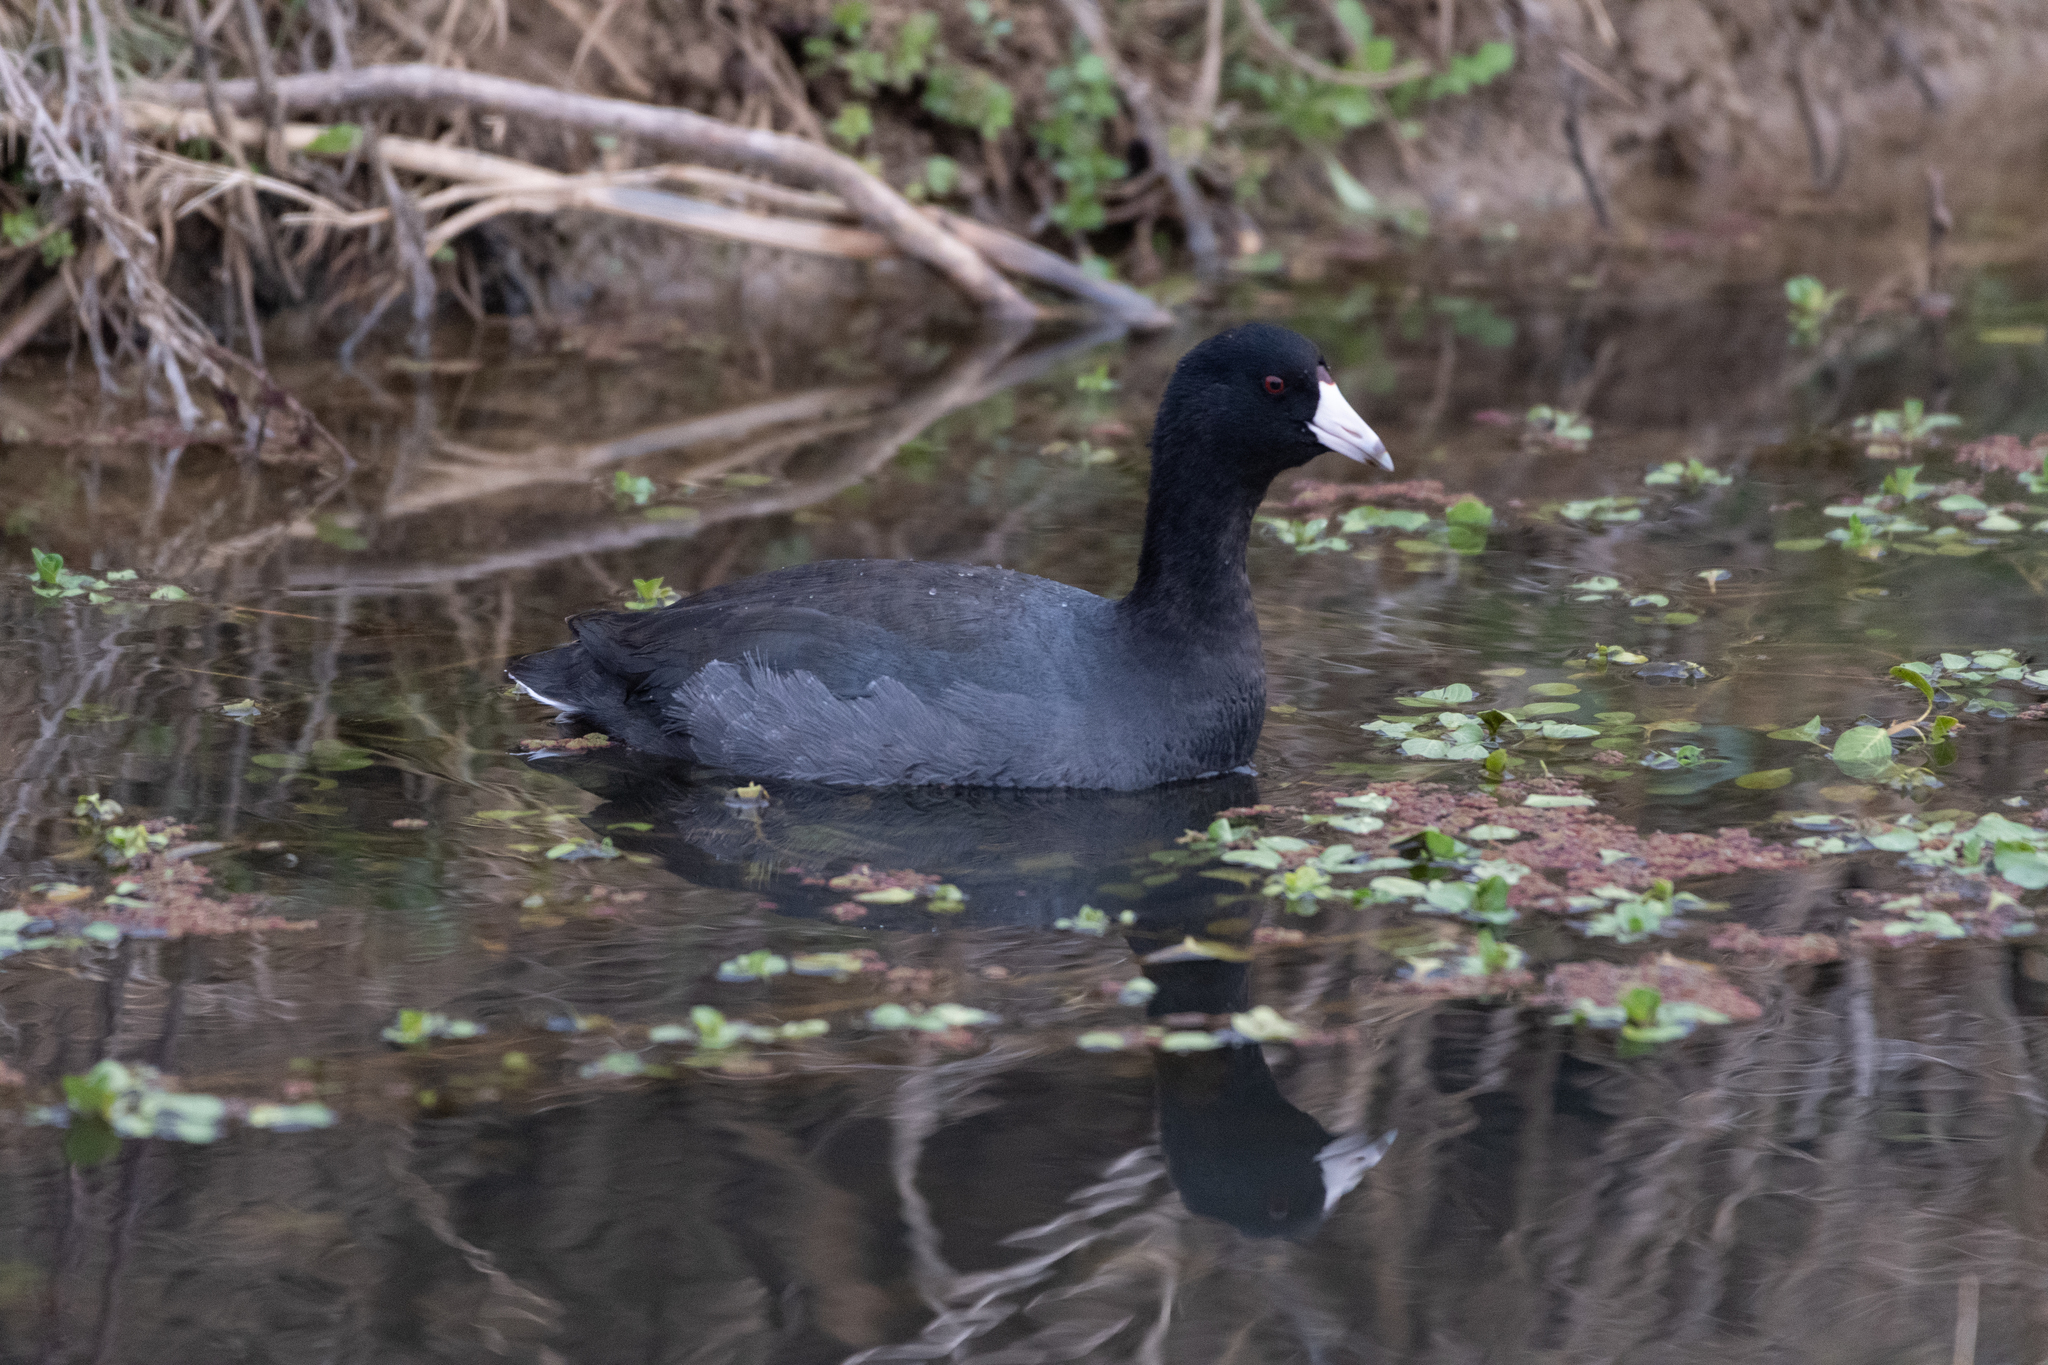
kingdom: Animalia
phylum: Chordata
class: Aves
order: Gruiformes
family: Rallidae
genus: Fulica
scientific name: Fulica americana
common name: American coot
